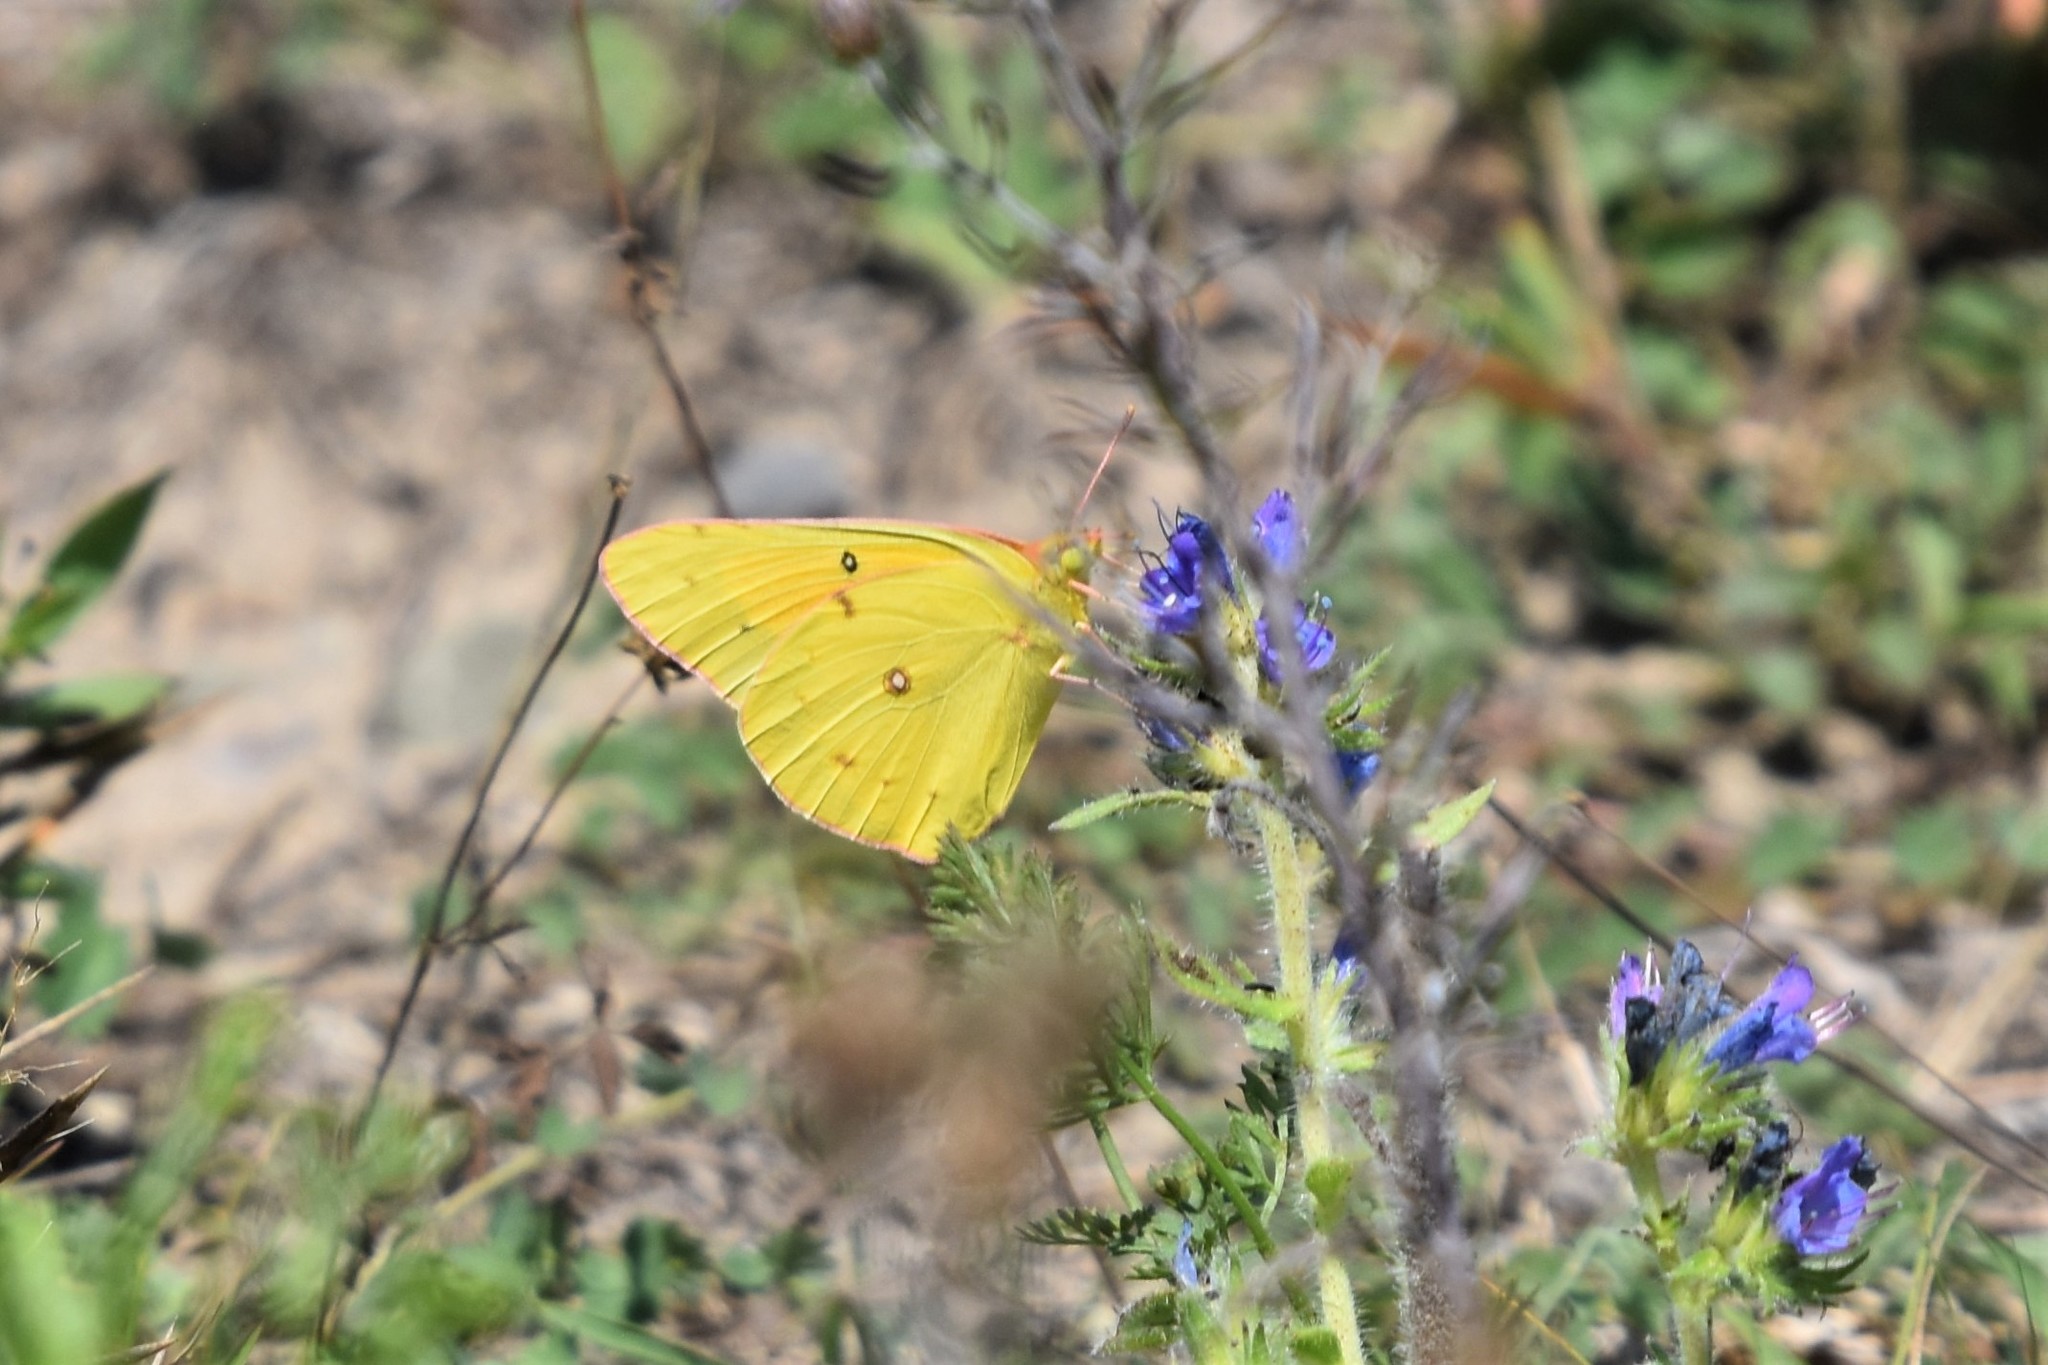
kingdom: Animalia
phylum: Arthropoda
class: Insecta
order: Lepidoptera
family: Pieridae
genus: Colias
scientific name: Colias eurytheme
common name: Alfalfa butterfly
